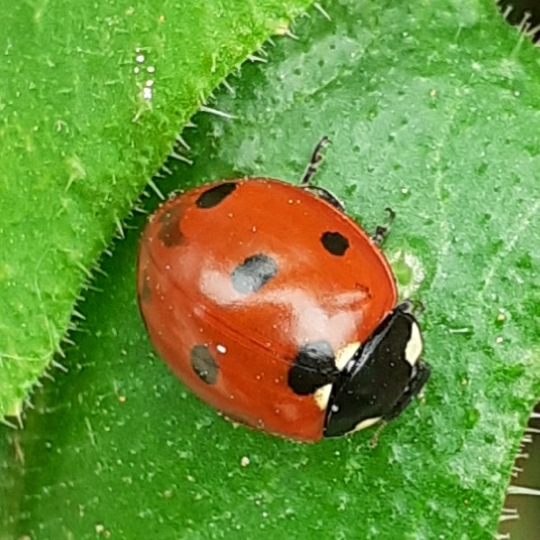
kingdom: Animalia
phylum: Arthropoda
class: Insecta
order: Coleoptera
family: Coccinellidae
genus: Coccinella
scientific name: Coccinella septempunctata
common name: Sevenspotted lady beetle
